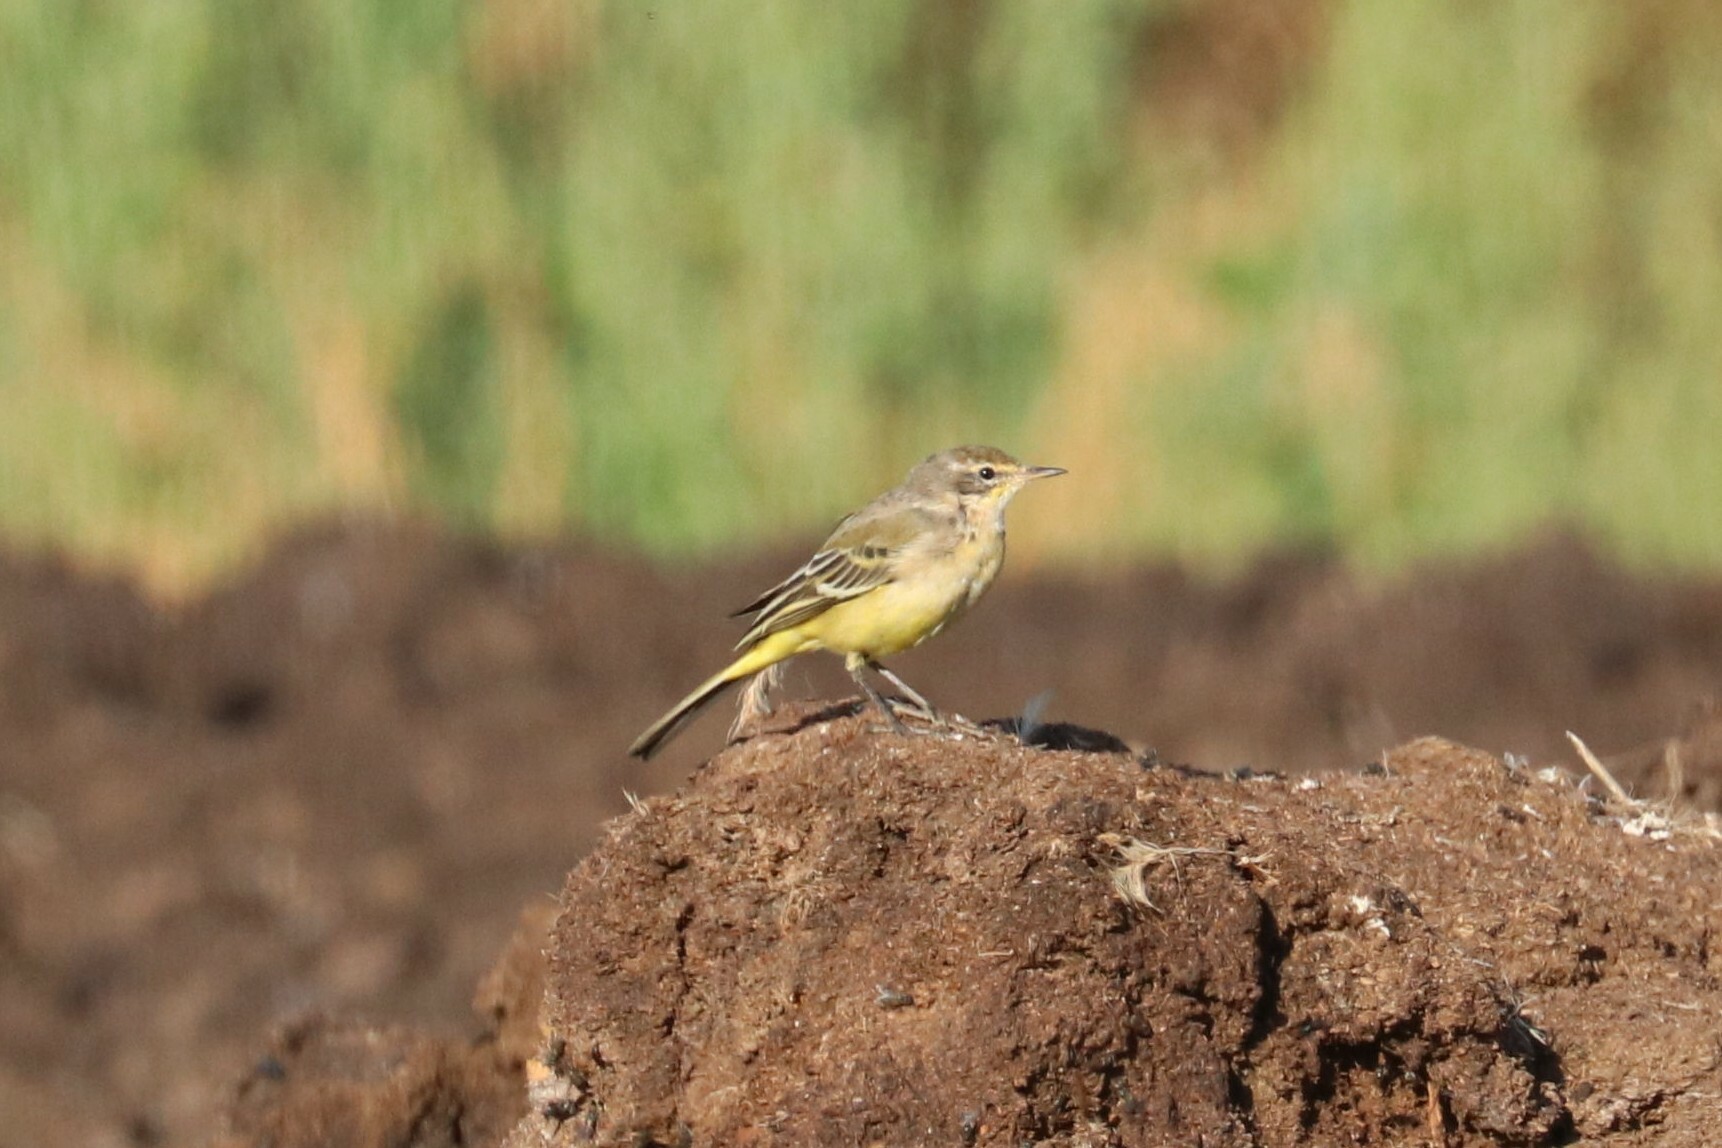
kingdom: Animalia
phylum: Chordata
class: Aves
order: Passeriformes
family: Motacillidae
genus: Motacilla
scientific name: Motacilla flava
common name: Western yellow wagtail
